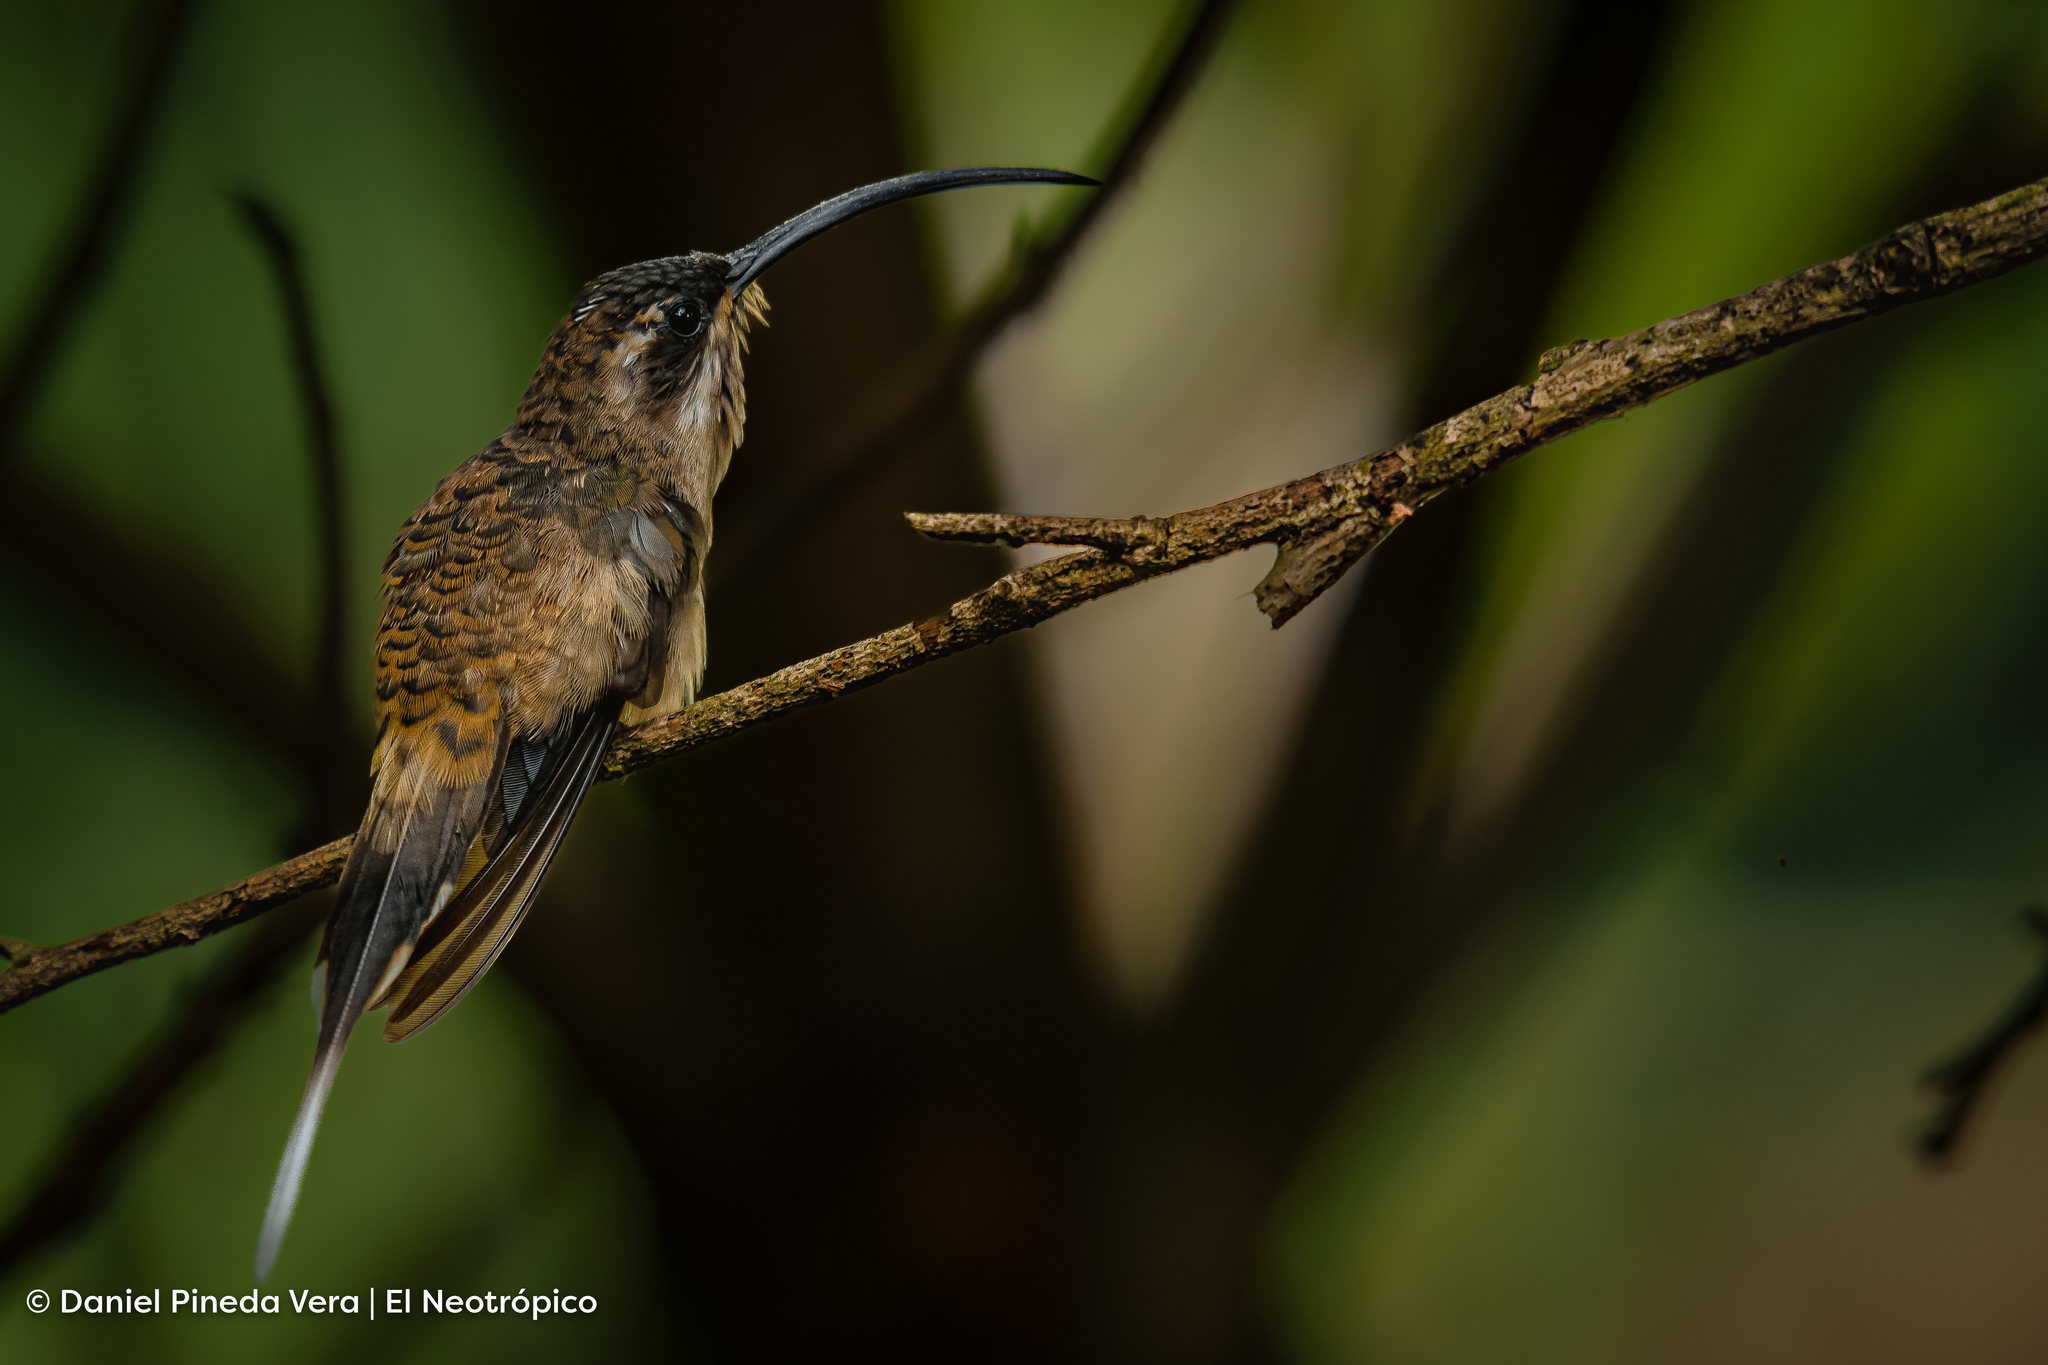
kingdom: Animalia
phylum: Chordata
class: Aves
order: Apodiformes
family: Trochilidae
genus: Phaethornis
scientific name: Phaethornis longirostris
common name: Long-billed hermit
